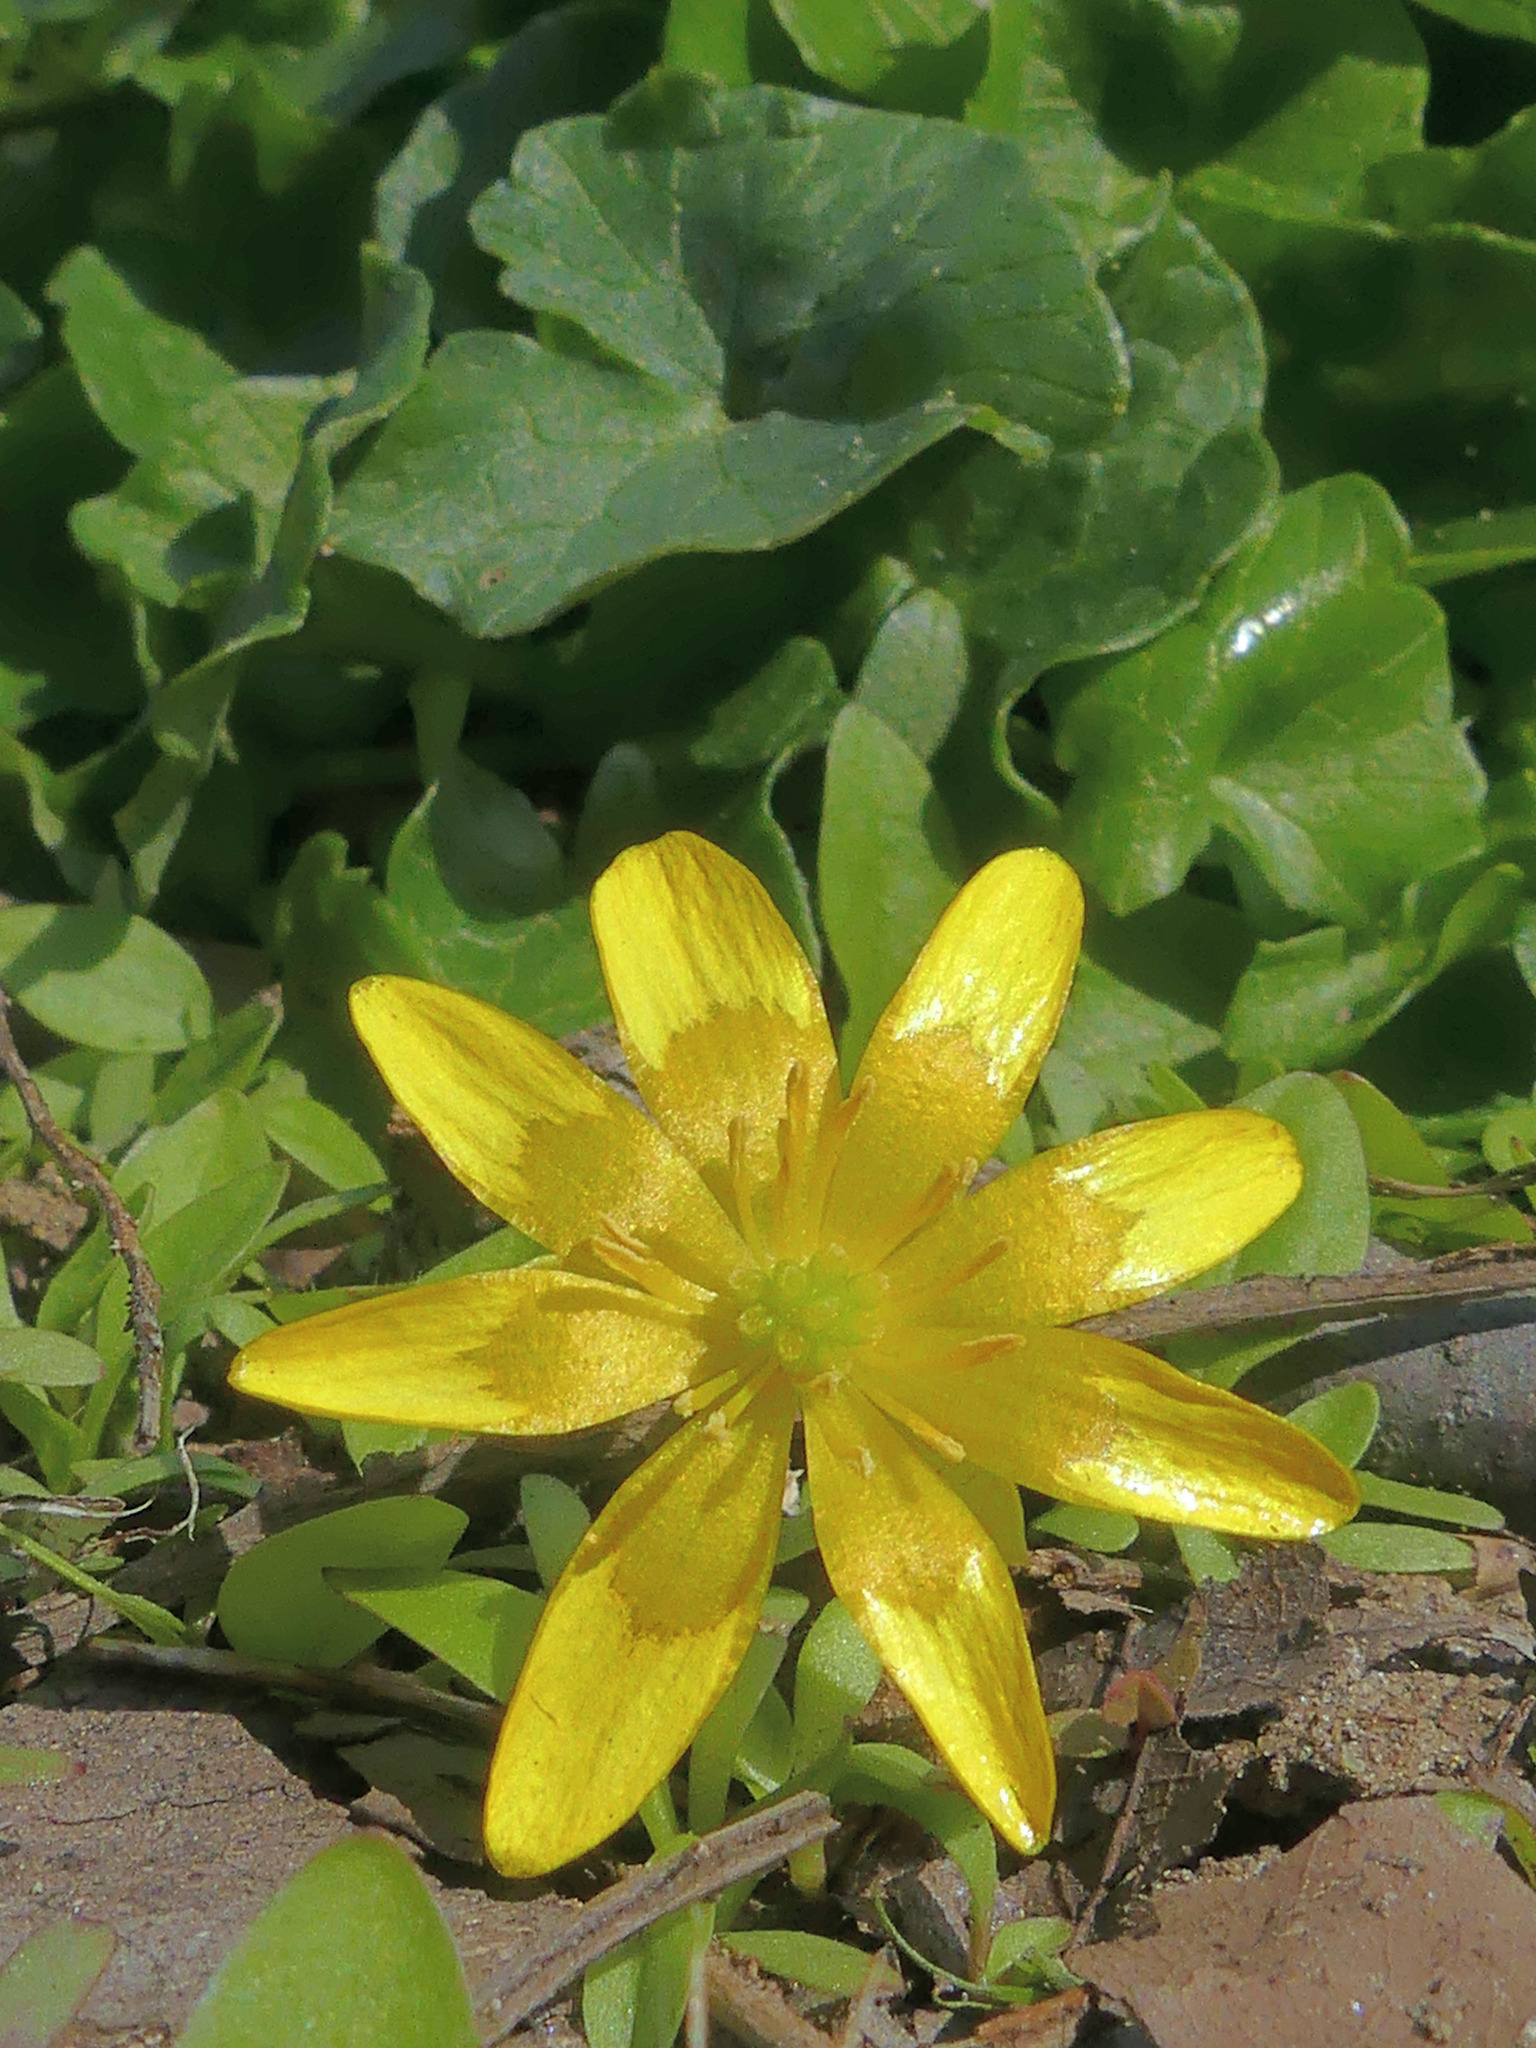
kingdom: Plantae
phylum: Tracheophyta
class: Magnoliopsida
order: Ranunculales
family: Ranunculaceae
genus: Ficaria
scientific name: Ficaria verna
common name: Lesser celandine
